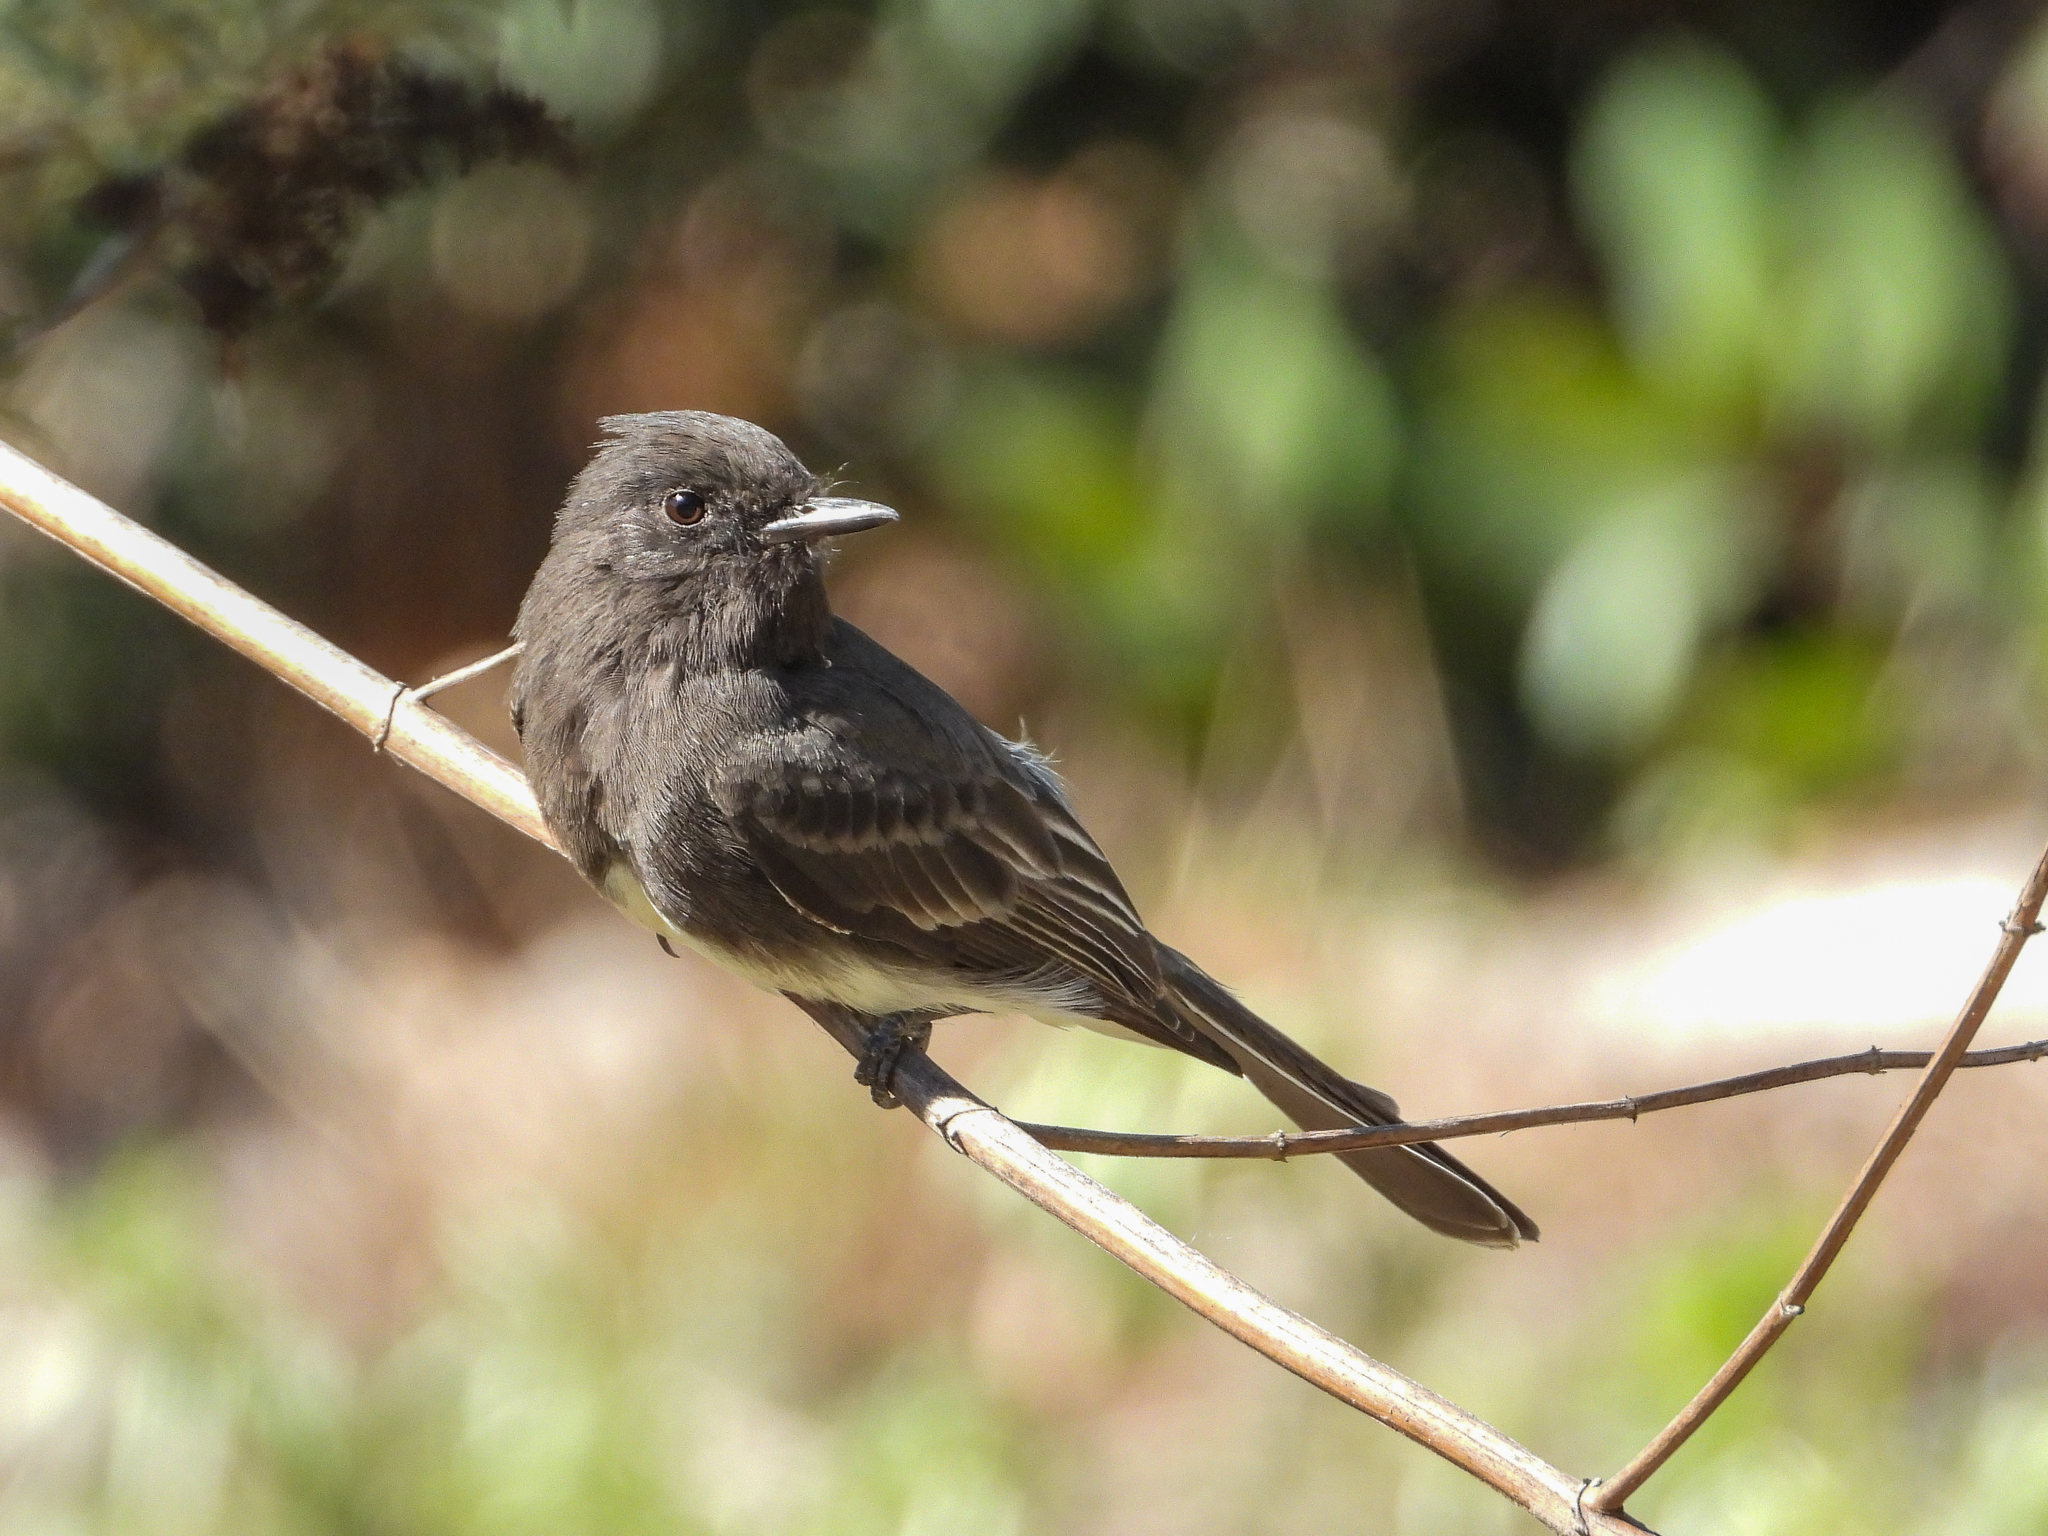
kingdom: Animalia
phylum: Chordata
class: Aves
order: Passeriformes
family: Tyrannidae
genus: Sayornis
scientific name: Sayornis nigricans
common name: Black phoebe
